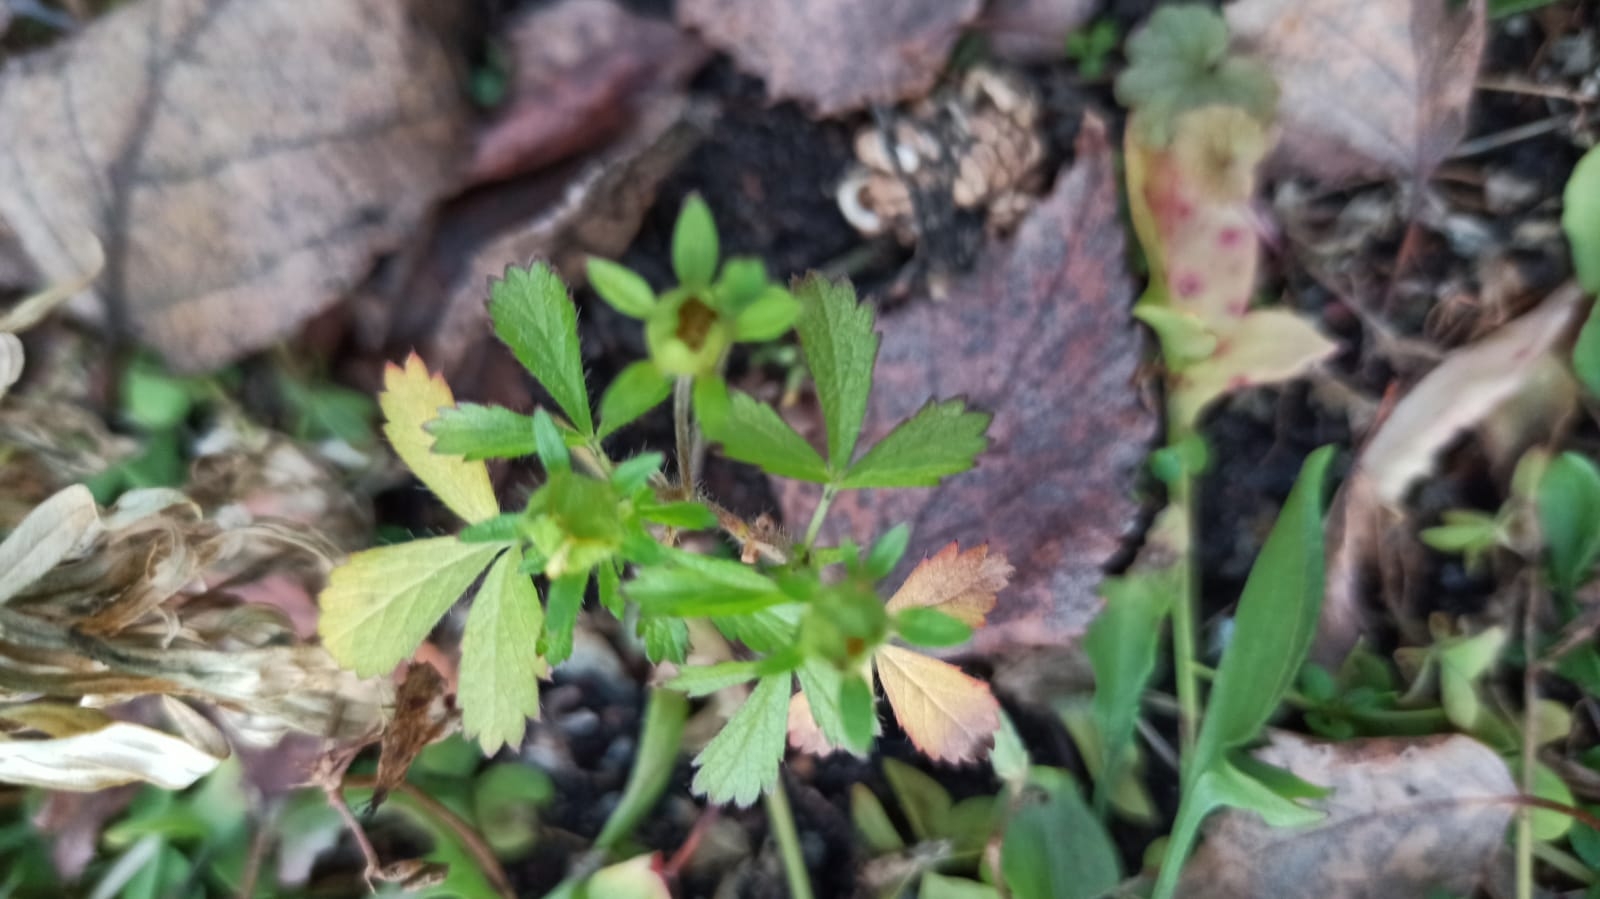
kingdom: Plantae
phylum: Tracheophyta
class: Magnoliopsida
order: Rosales
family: Rosaceae
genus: Potentilla
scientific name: Potentilla norvegica
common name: Ternate-leaved cinquefoil
